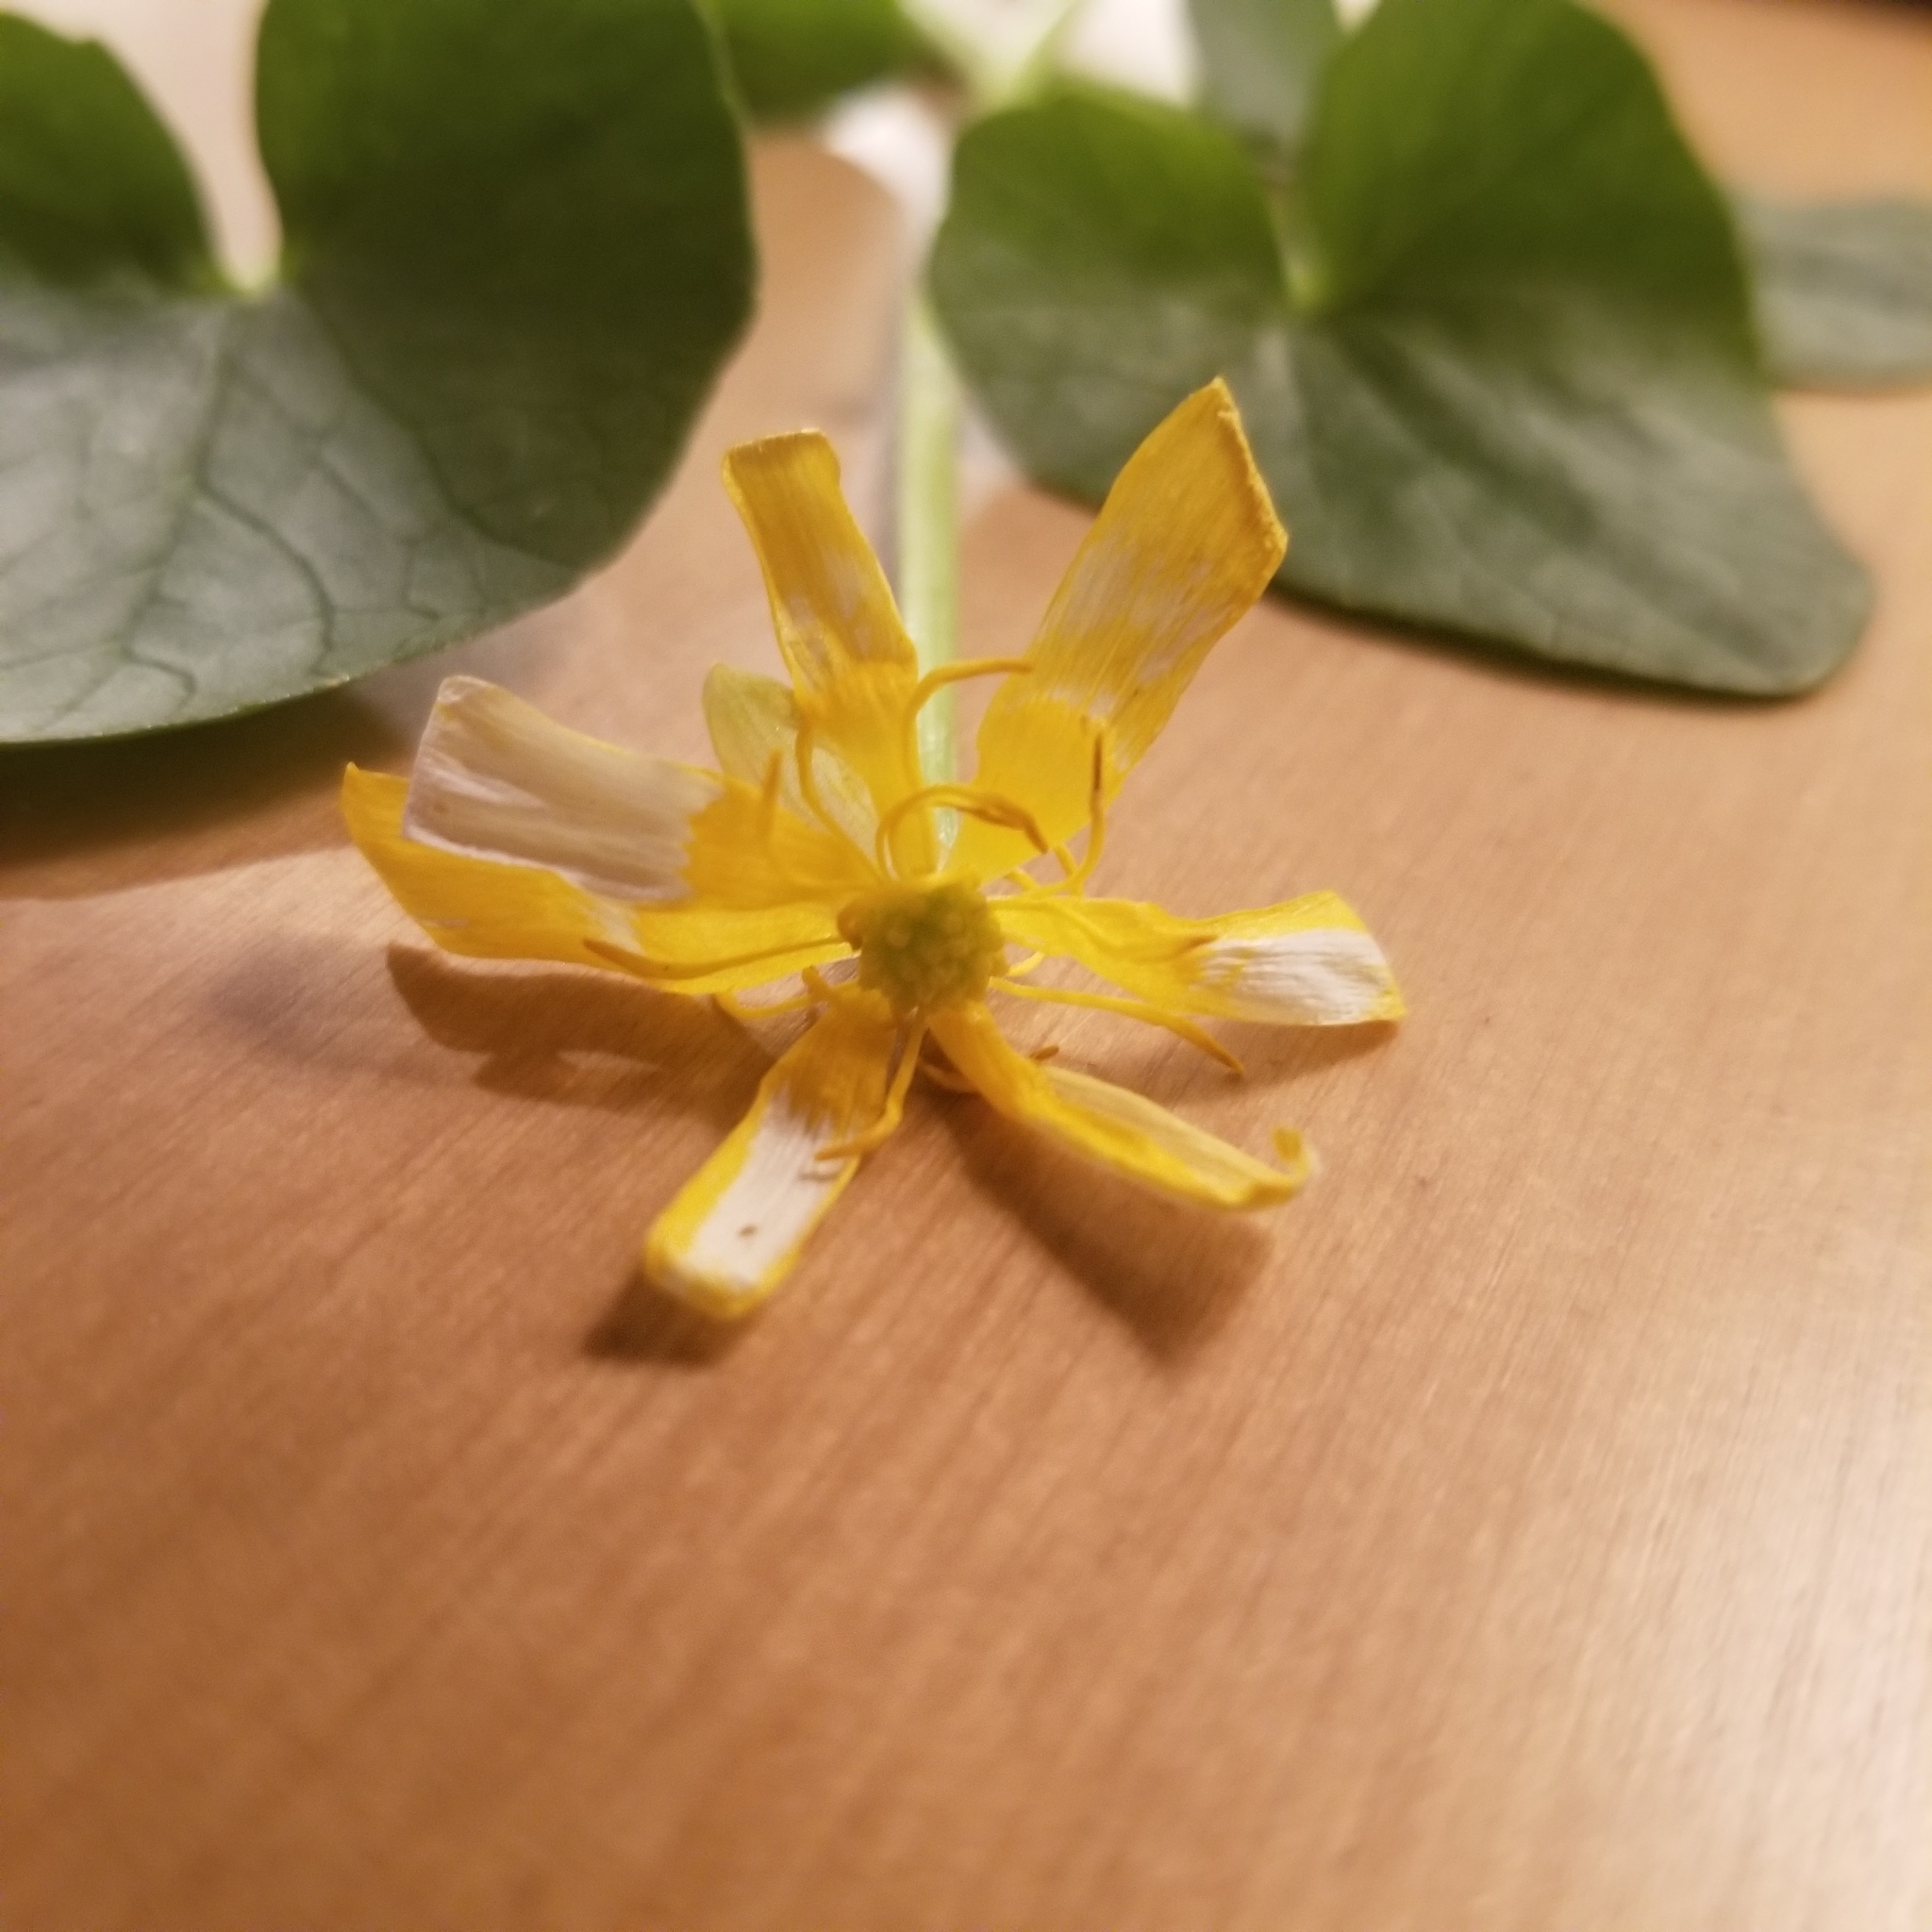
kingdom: Plantae
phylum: Tracheophyta
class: Magnoliopsida
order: Ranunculales
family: Ranunculaceae
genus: Ficaria
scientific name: Ficaria verna
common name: Lesser celandine
